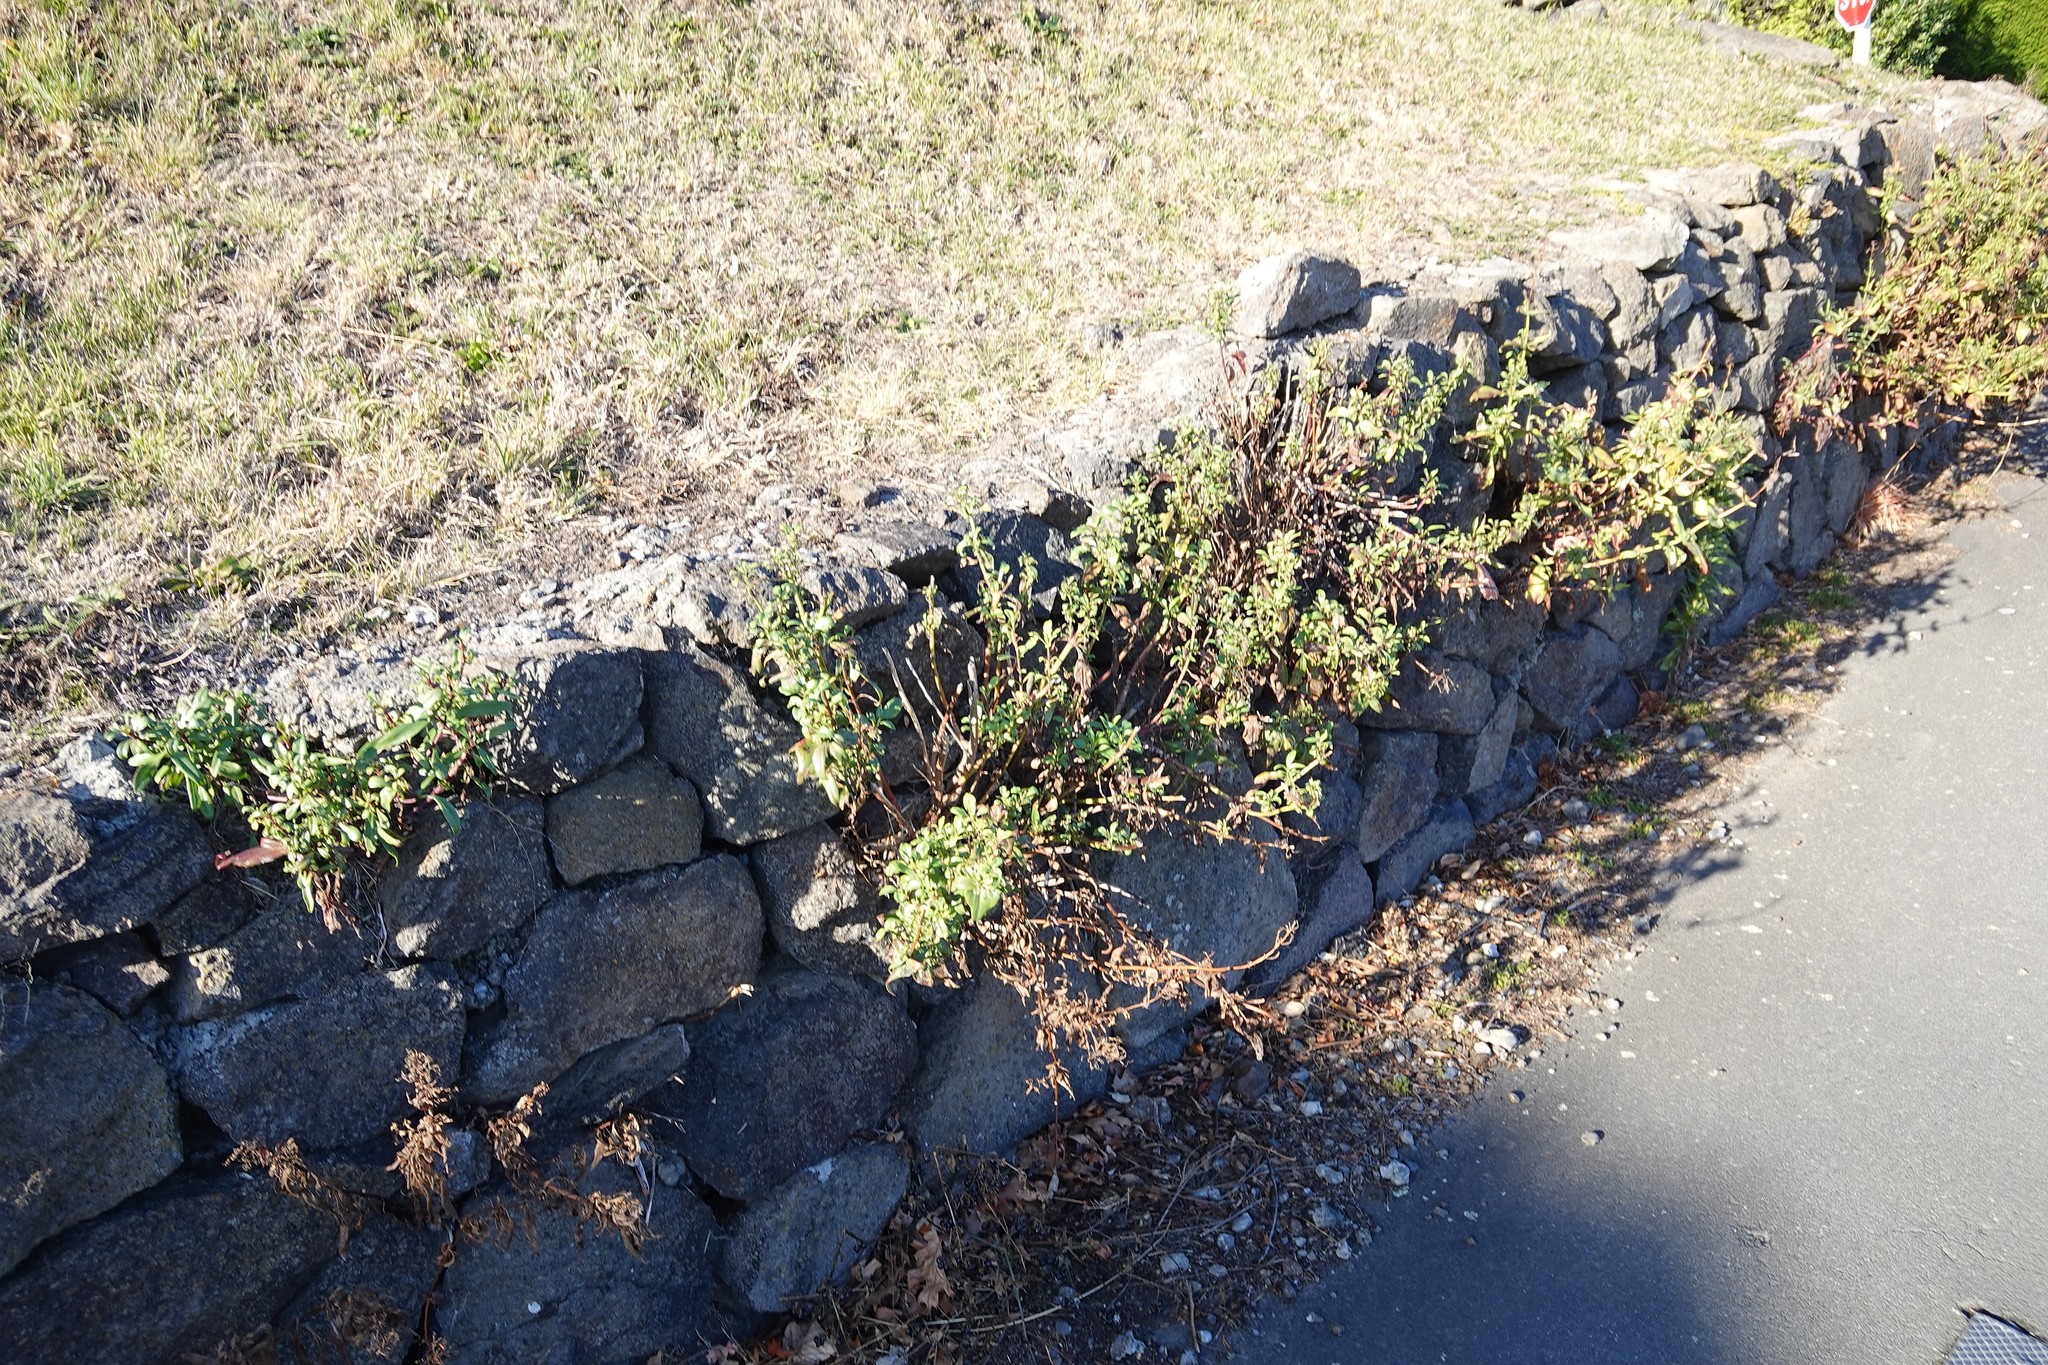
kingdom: Plantae
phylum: Tracheophyta
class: Magnoliopsida
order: Dipsacales
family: Caprifoliaceae
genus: Centranthus
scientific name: Centranthus ruber
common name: Red valerian
